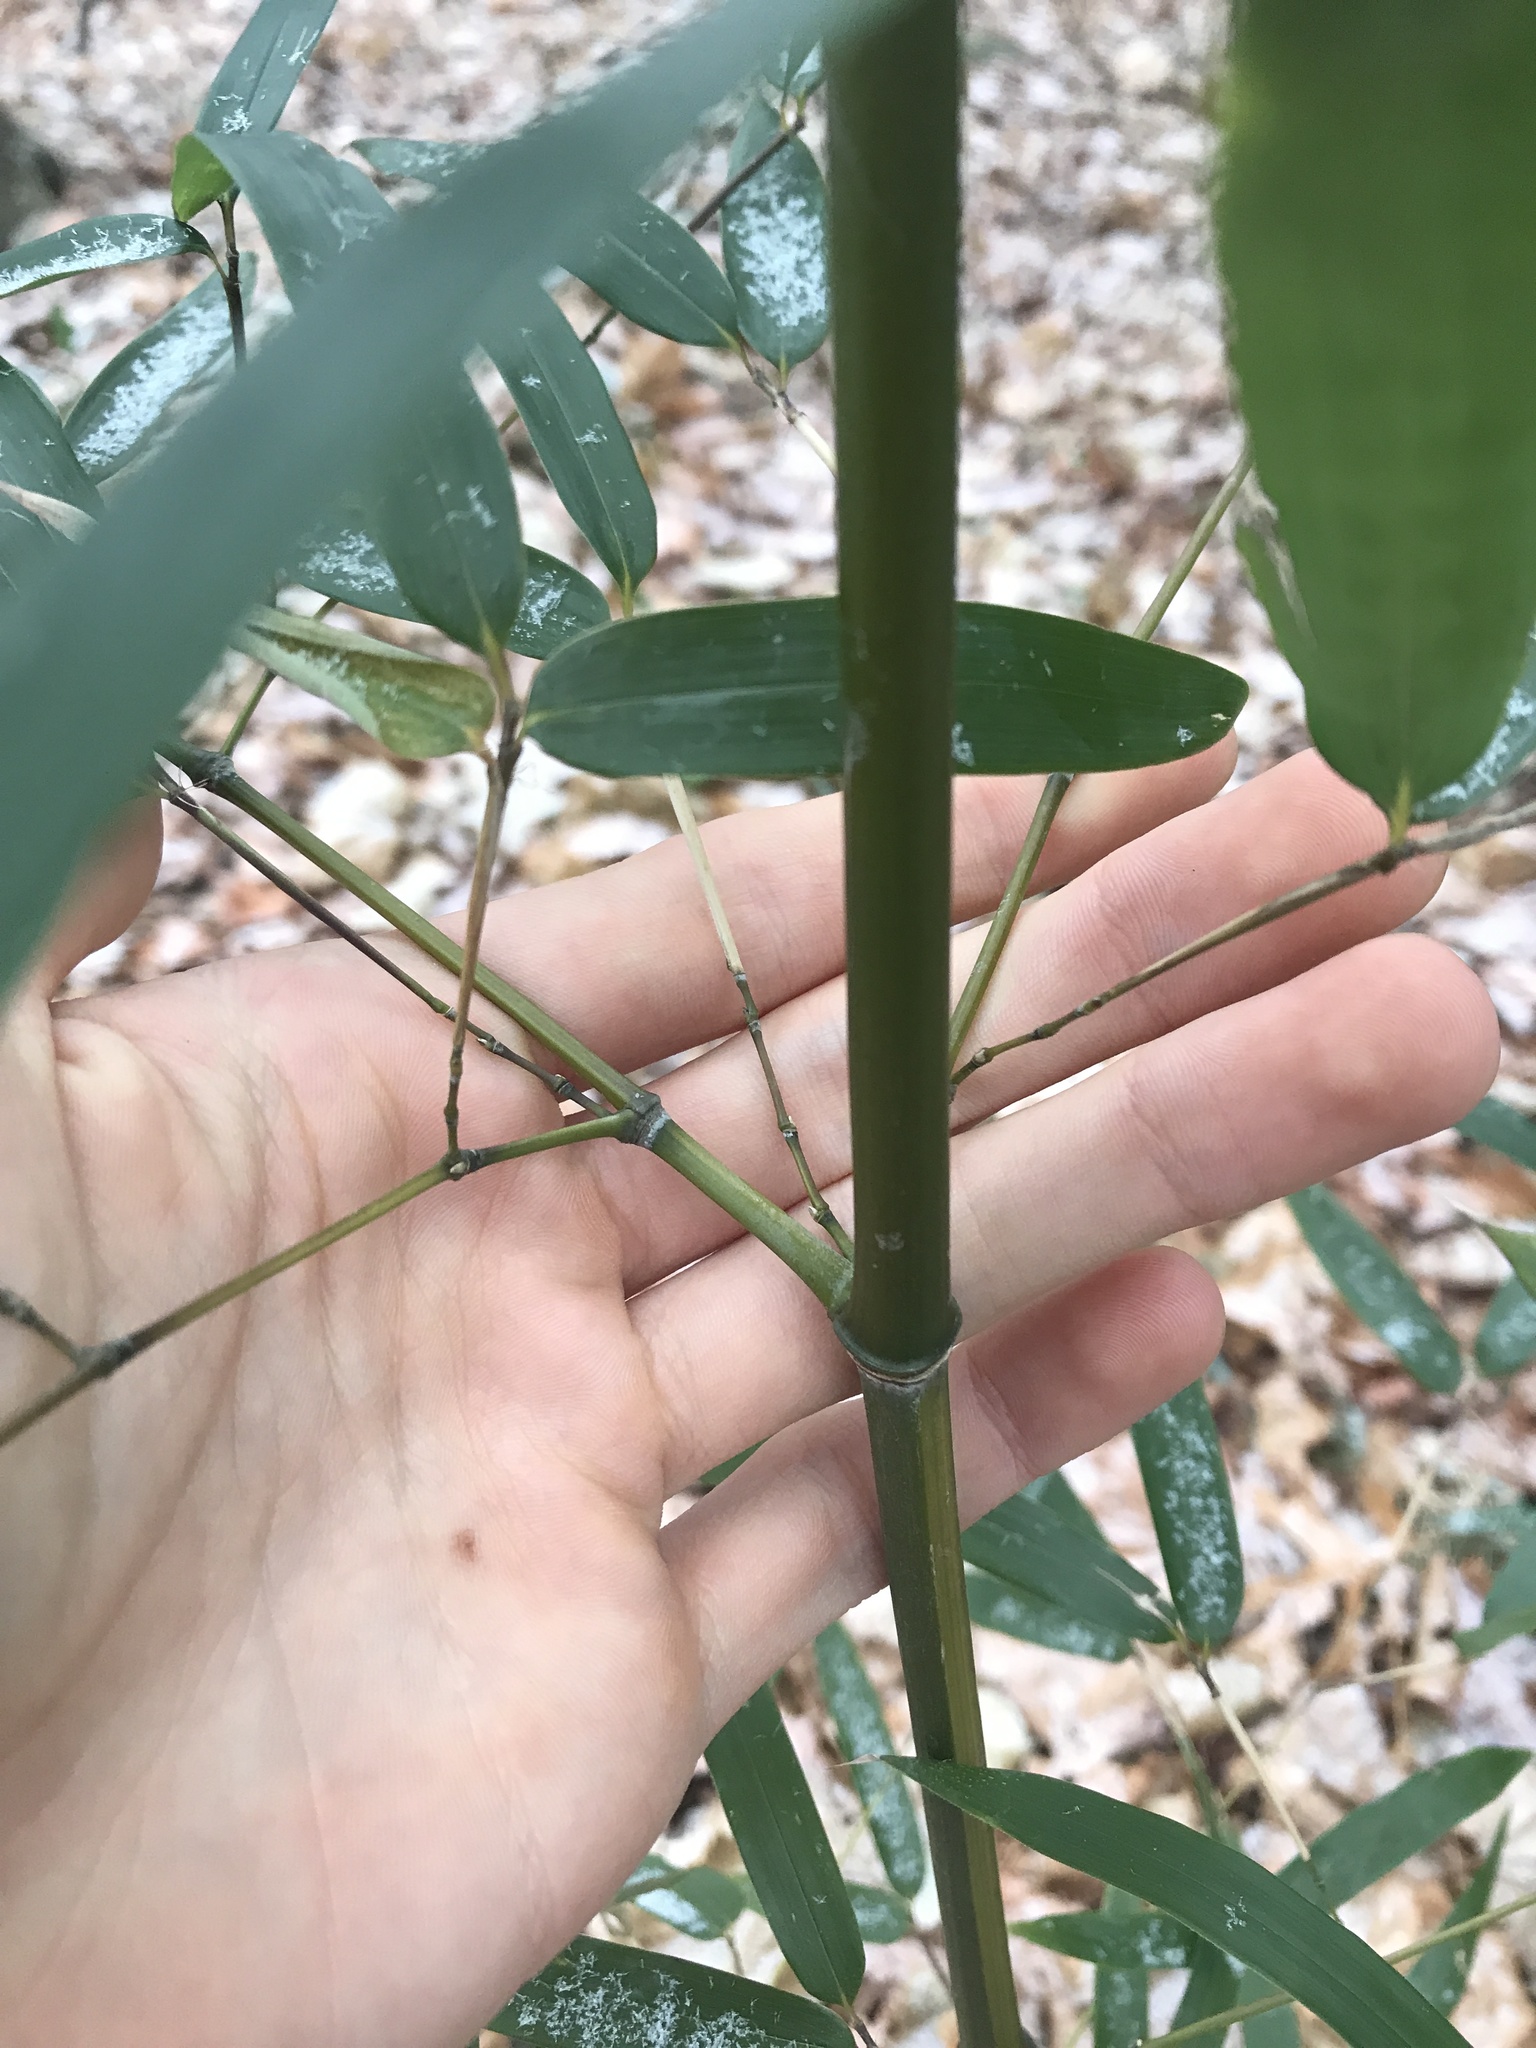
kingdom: Plantae
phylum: Tracheophyta
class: Liliopsida
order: Poales
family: Poaceae
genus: Phyllostachys
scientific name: Phyllostachys aureosulcata
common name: Yellow groove bamboo
